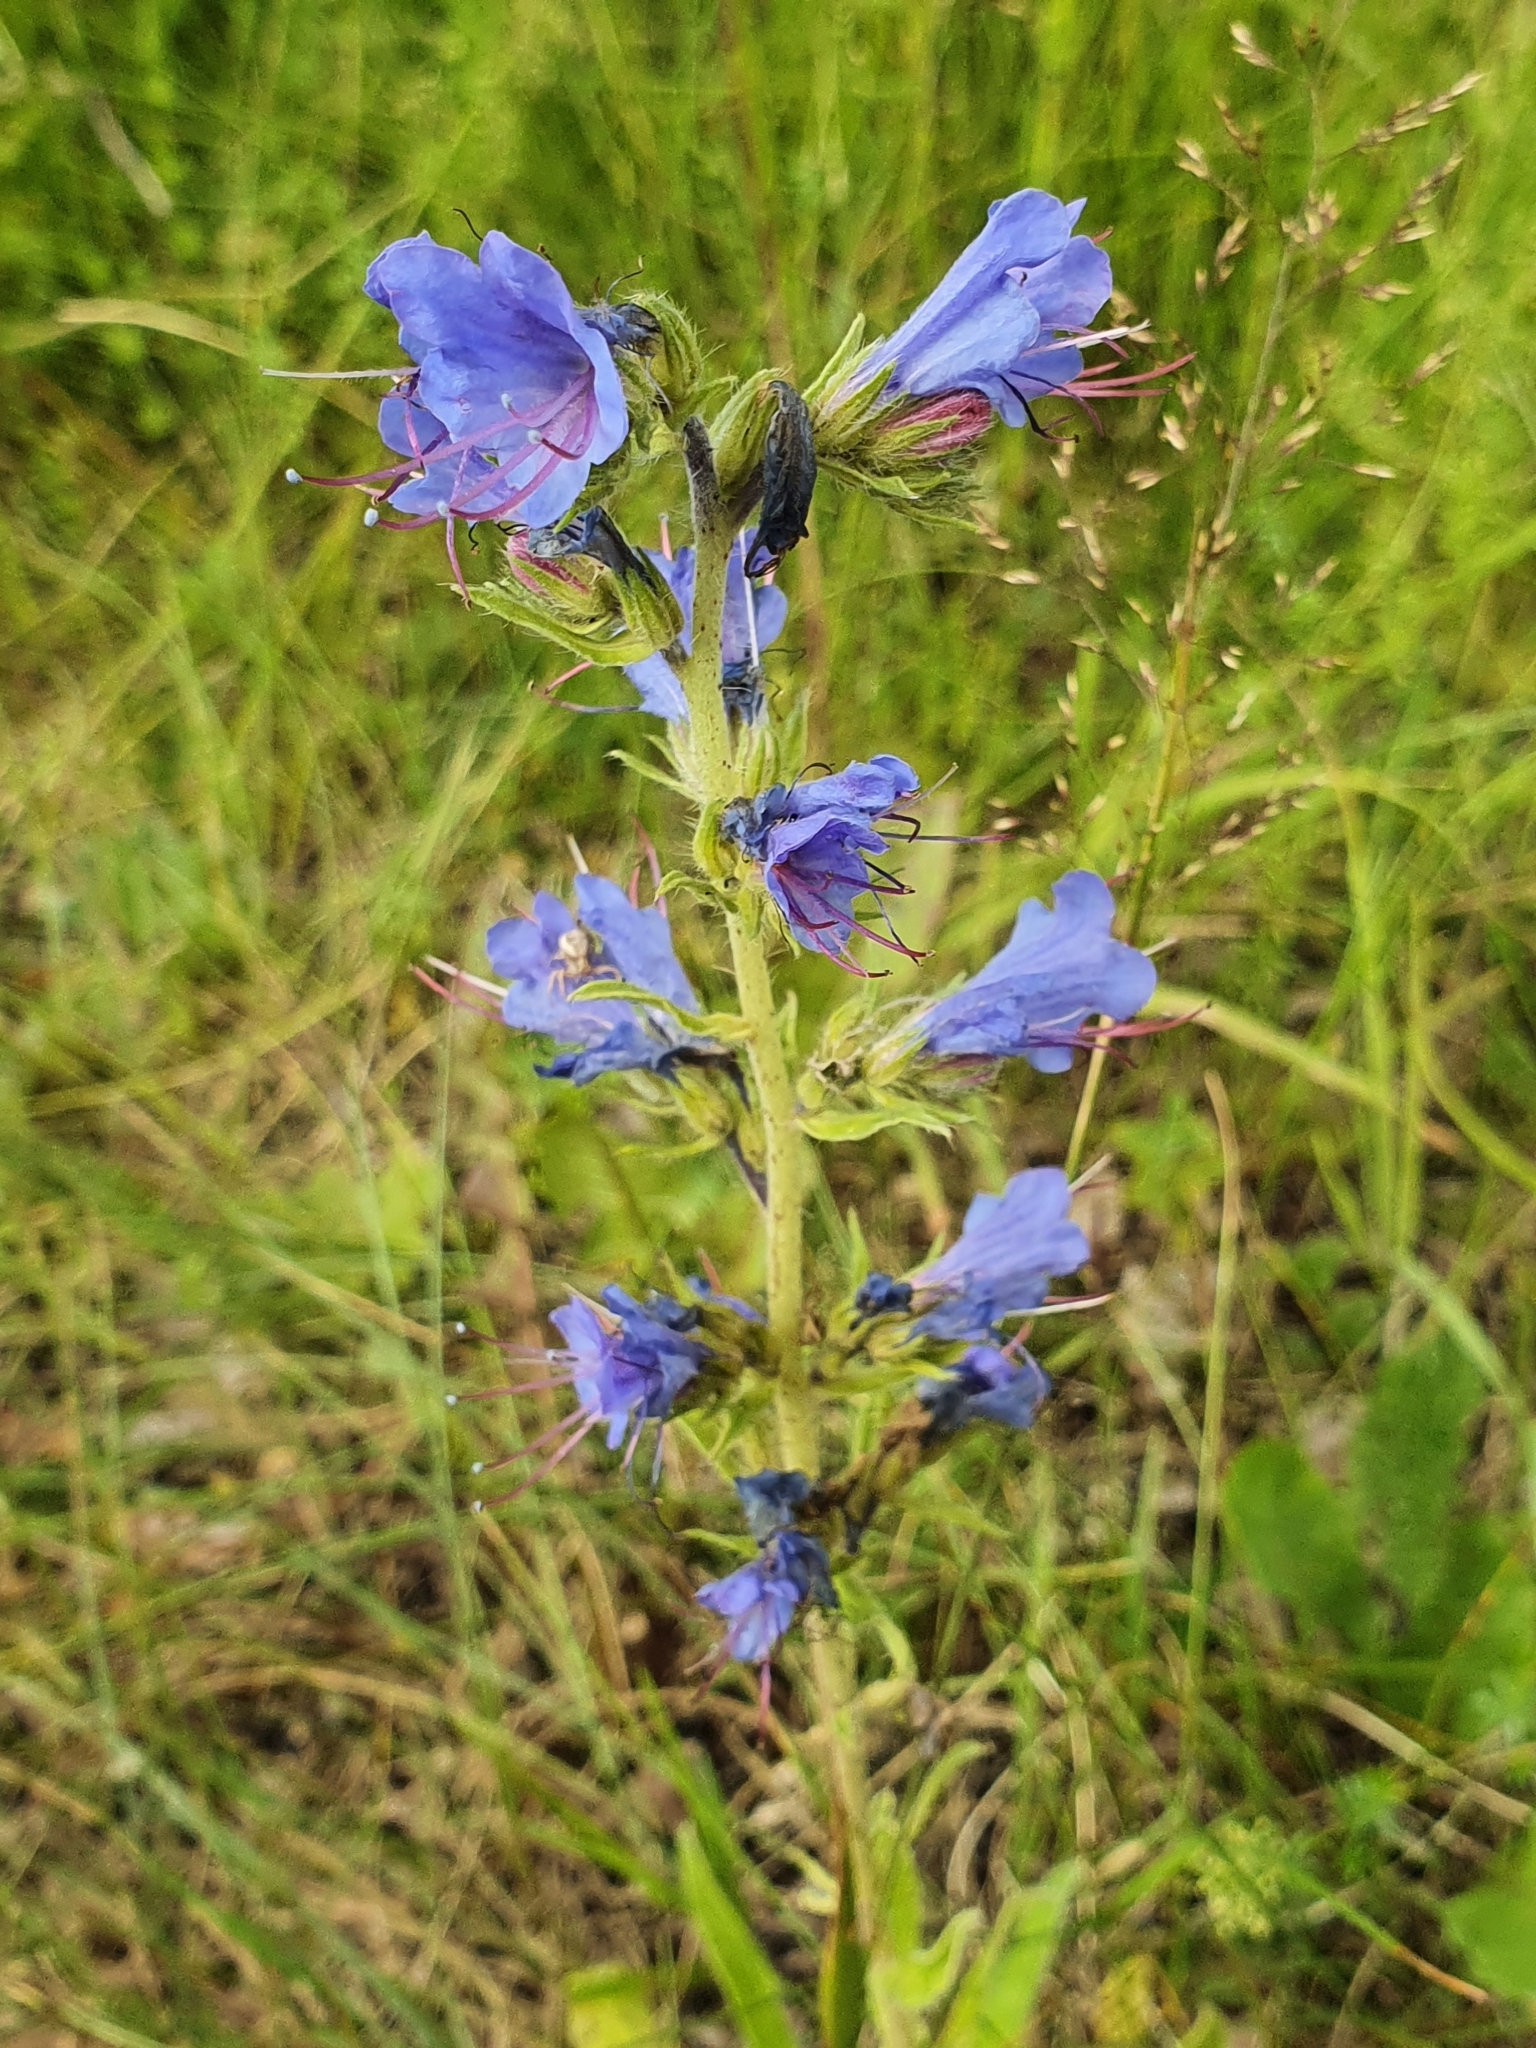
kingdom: Plantae
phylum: Tracheophyta
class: Magnoliopsida
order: Boraginales
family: Boraginaceae
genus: Echium
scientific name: Echium vulgare
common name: Common viper's bugloss
